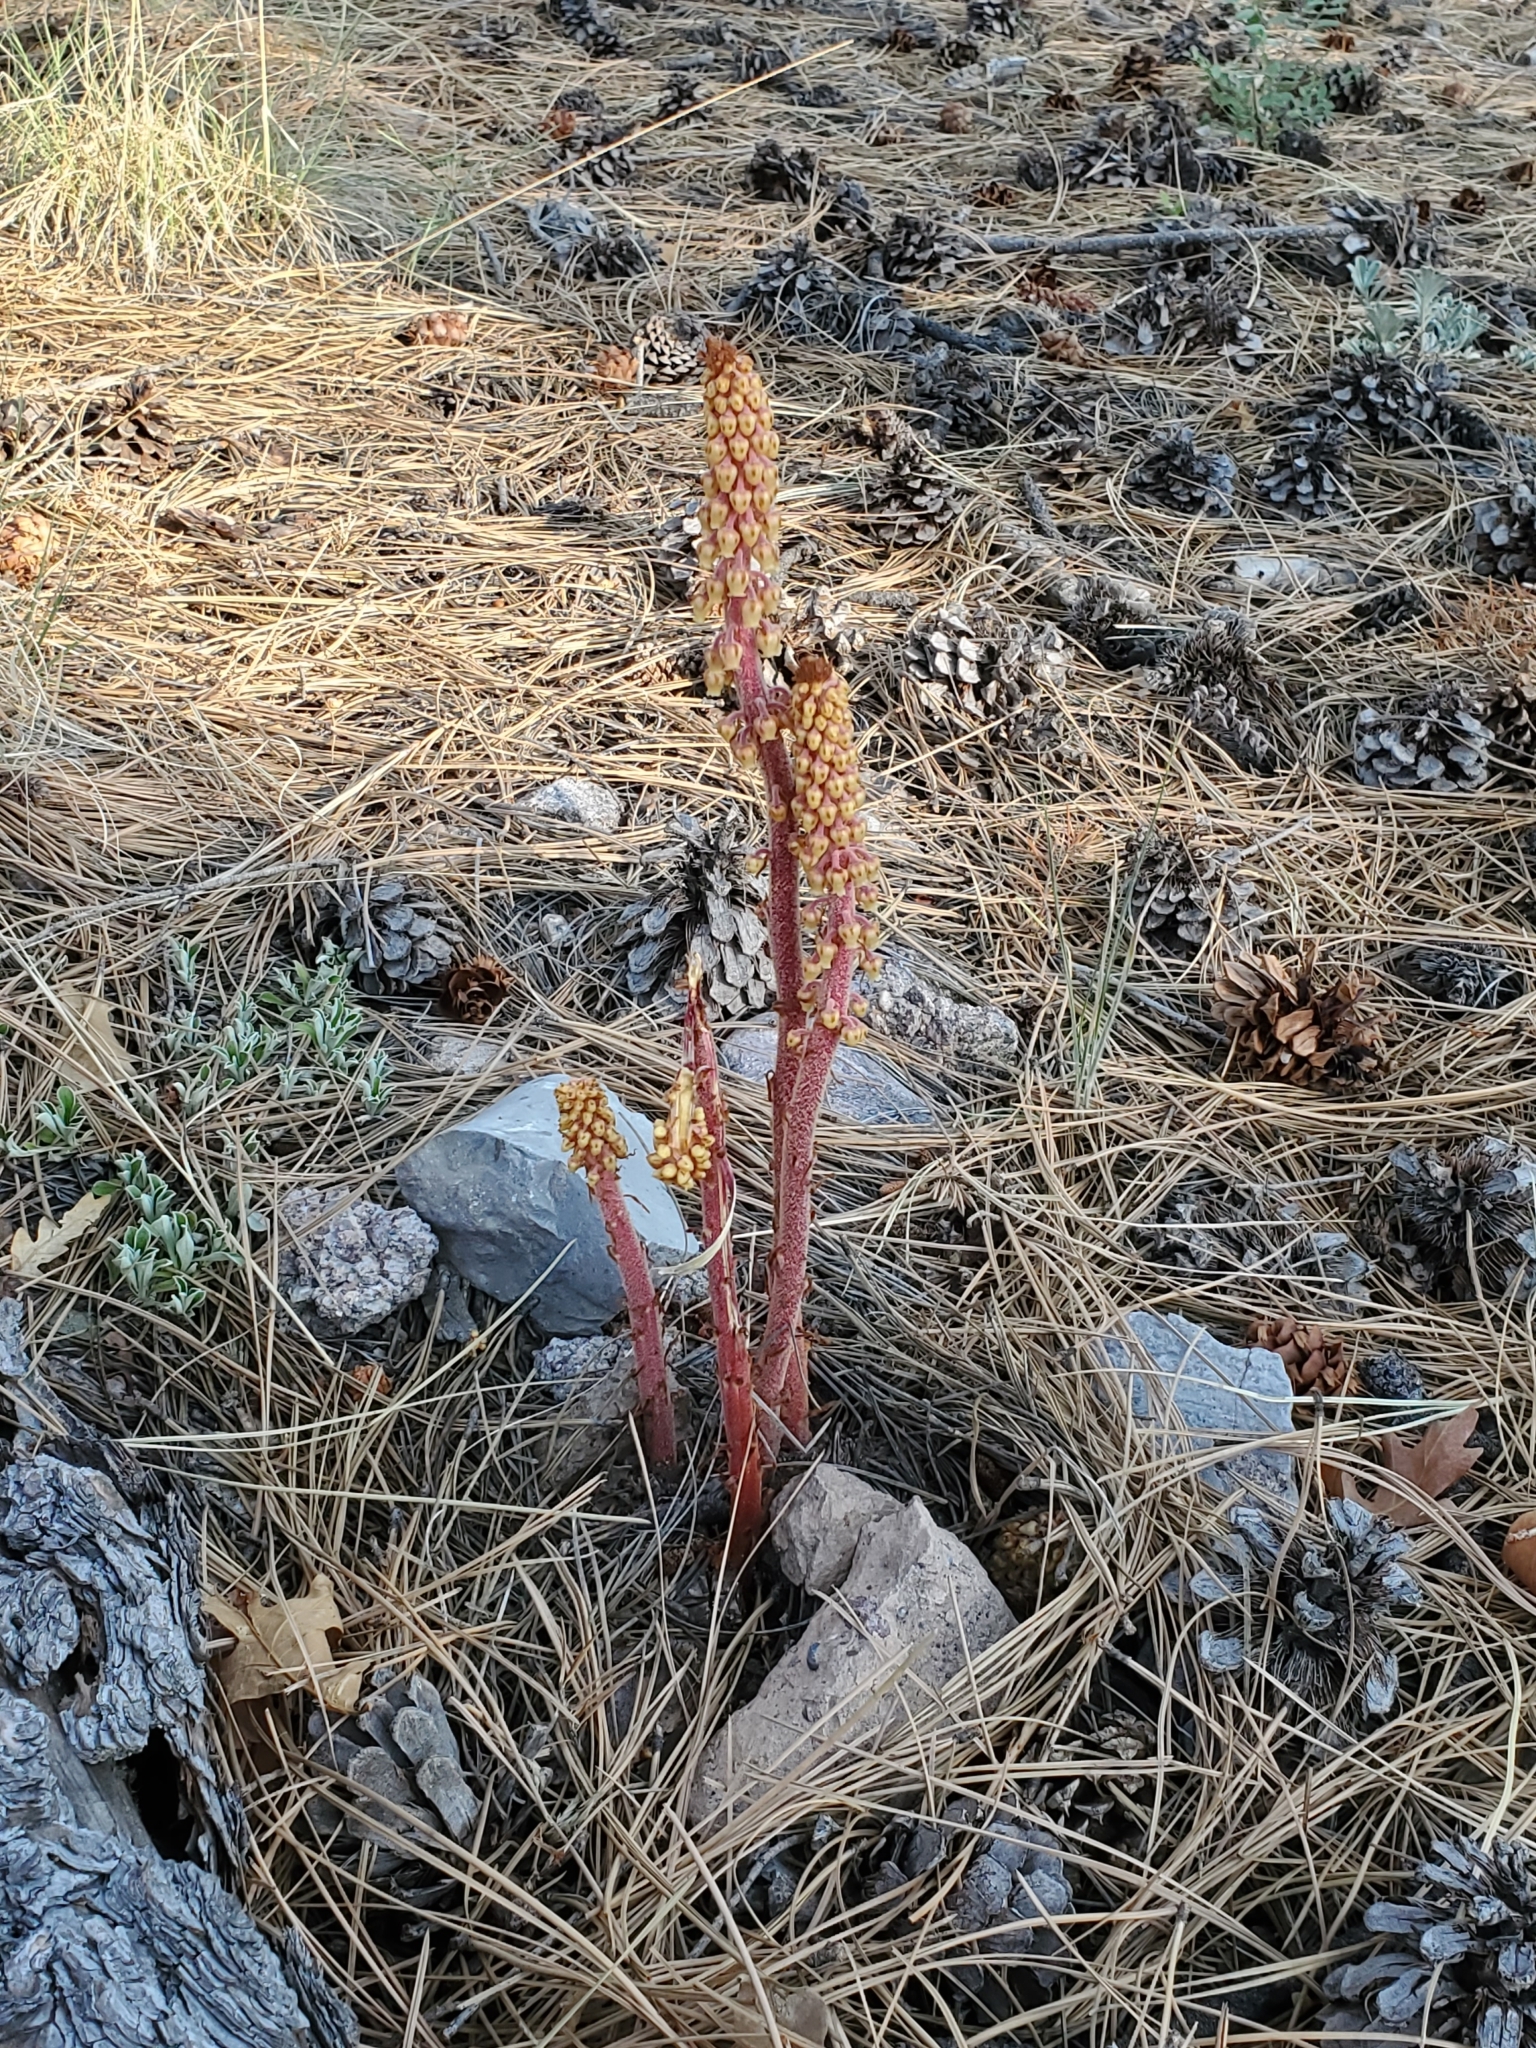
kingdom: Plantae
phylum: Tracheophyta
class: Magnoliopsida
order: Ericales
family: Ericaceae
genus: Pterospora
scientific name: Pterospora andromedea
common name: Giant bird's-nest
